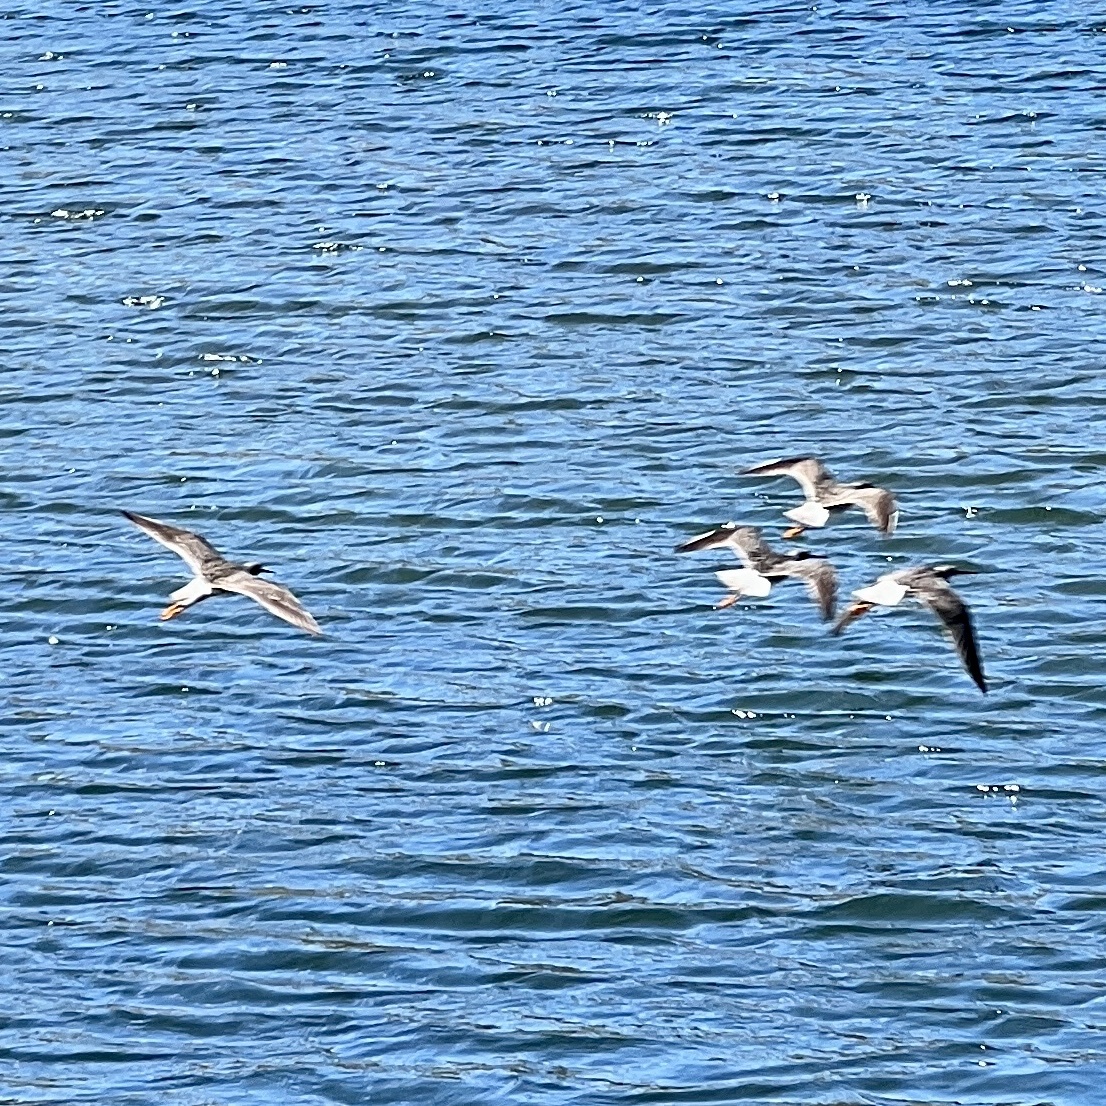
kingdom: Animalia
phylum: Chordata
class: Aves
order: Charadriiformes
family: Scolopacidae
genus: Tringa
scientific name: Tringa melanoleuca
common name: Greater yellowlegs
